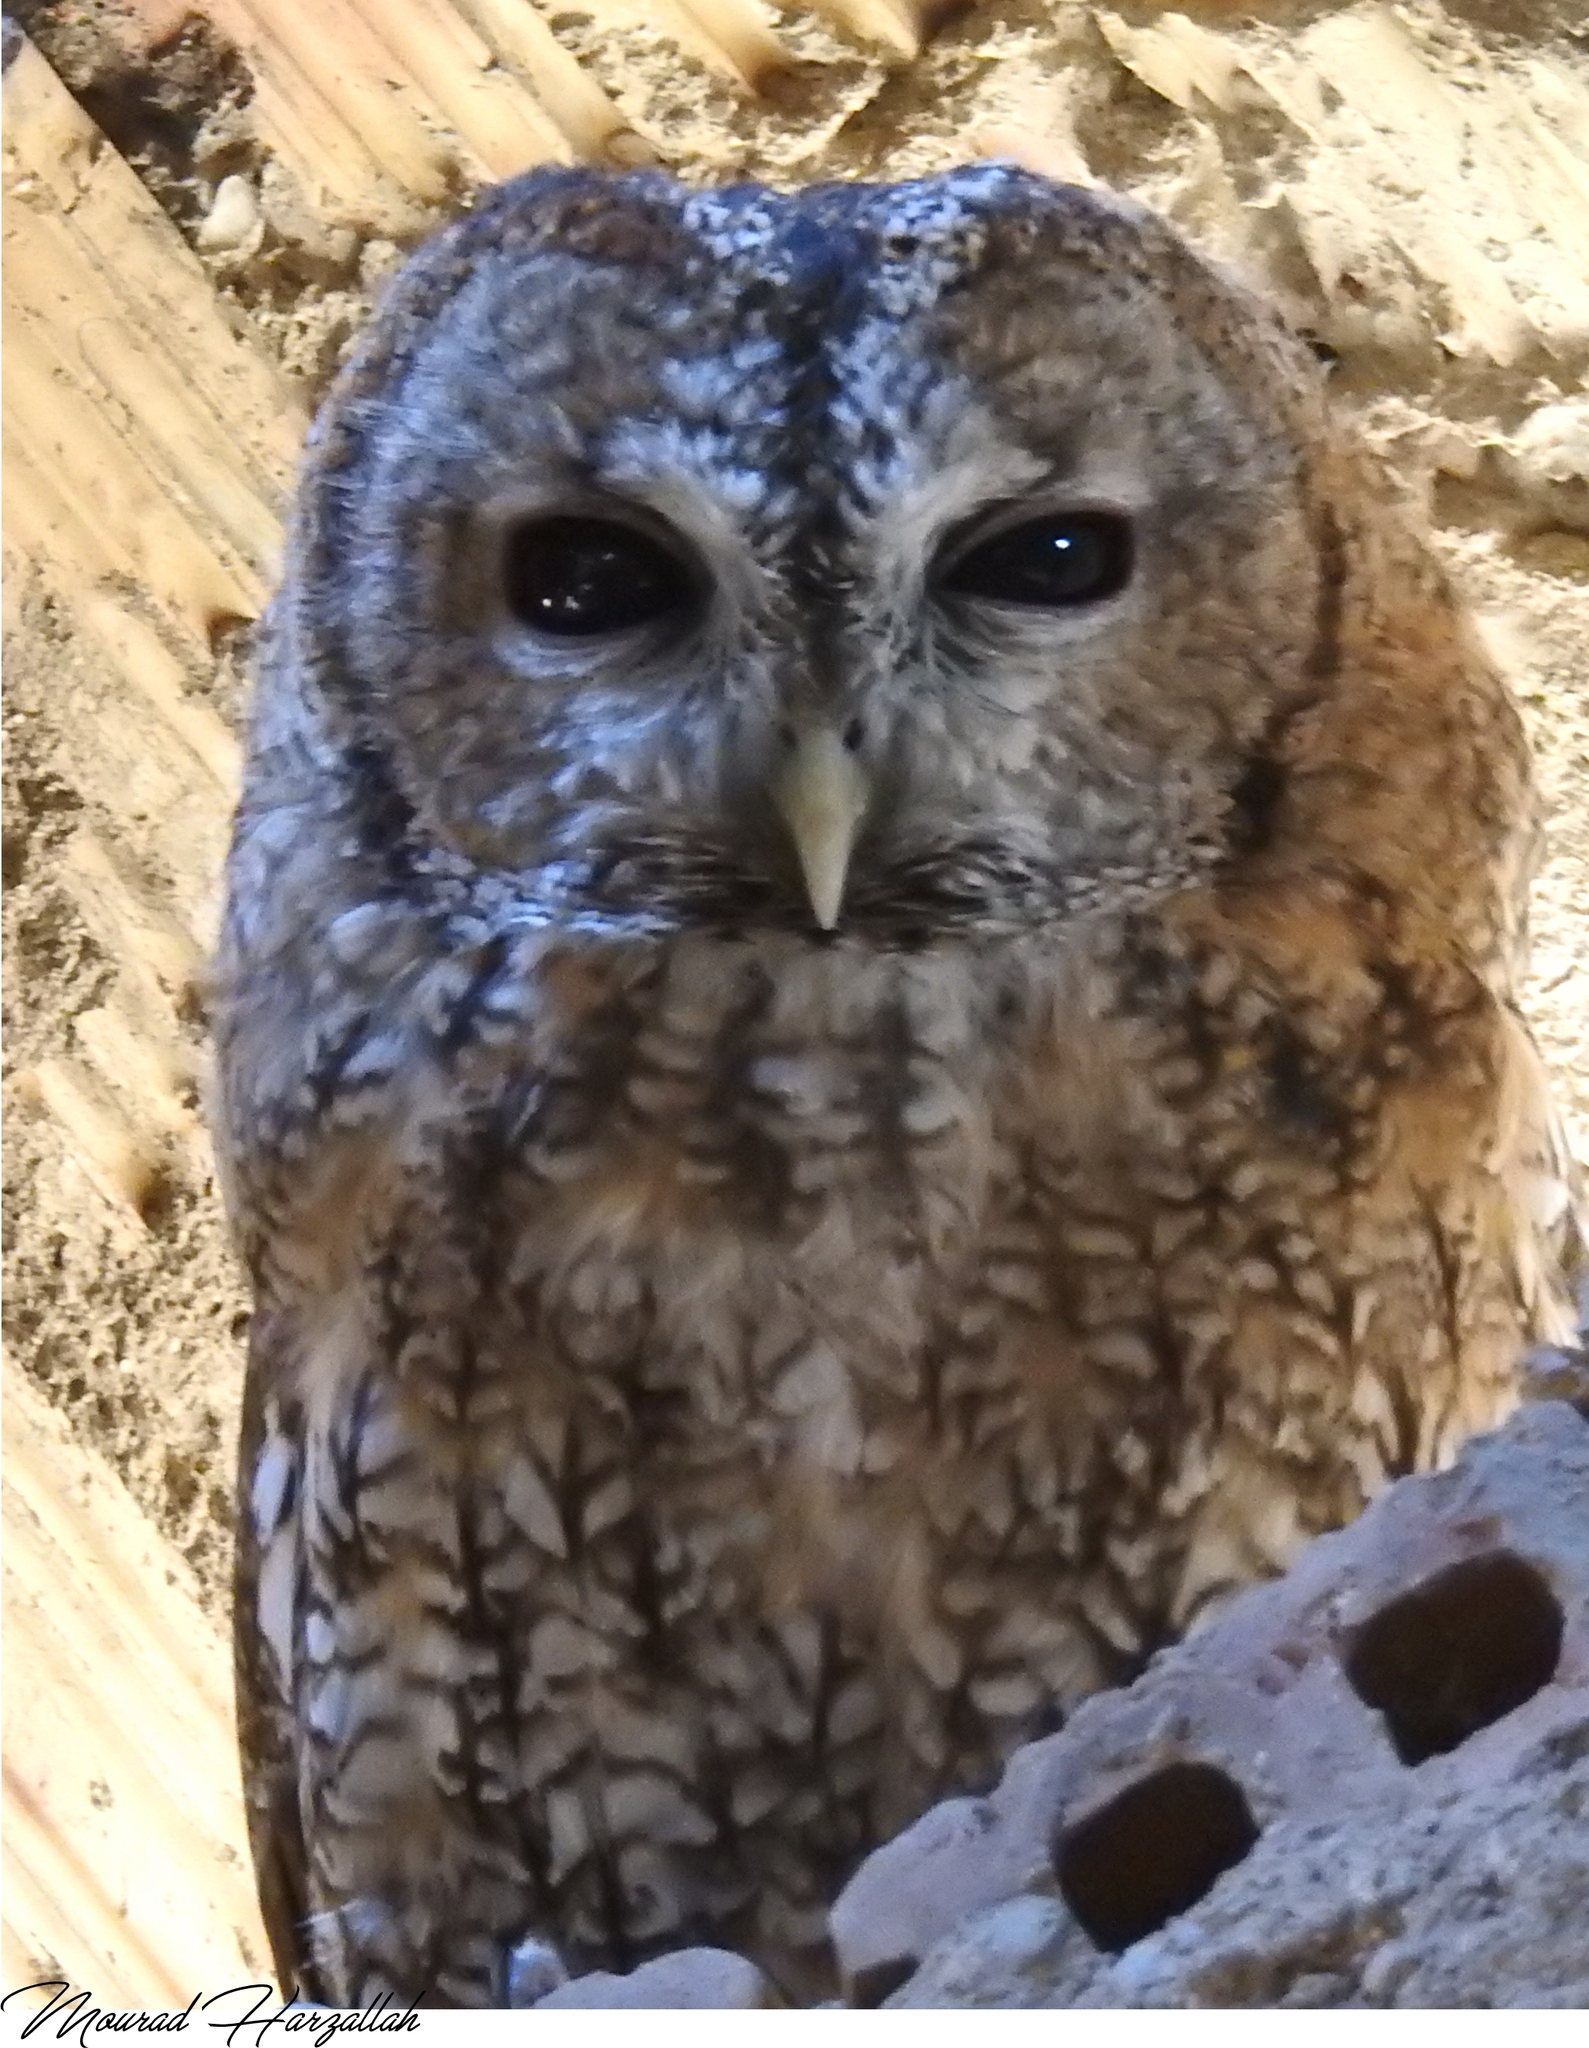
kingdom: Animalia
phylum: Chordata
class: Aves
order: Strigiformes
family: Strigidae
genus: Strix
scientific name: Strix aluco
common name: Tawny owl
